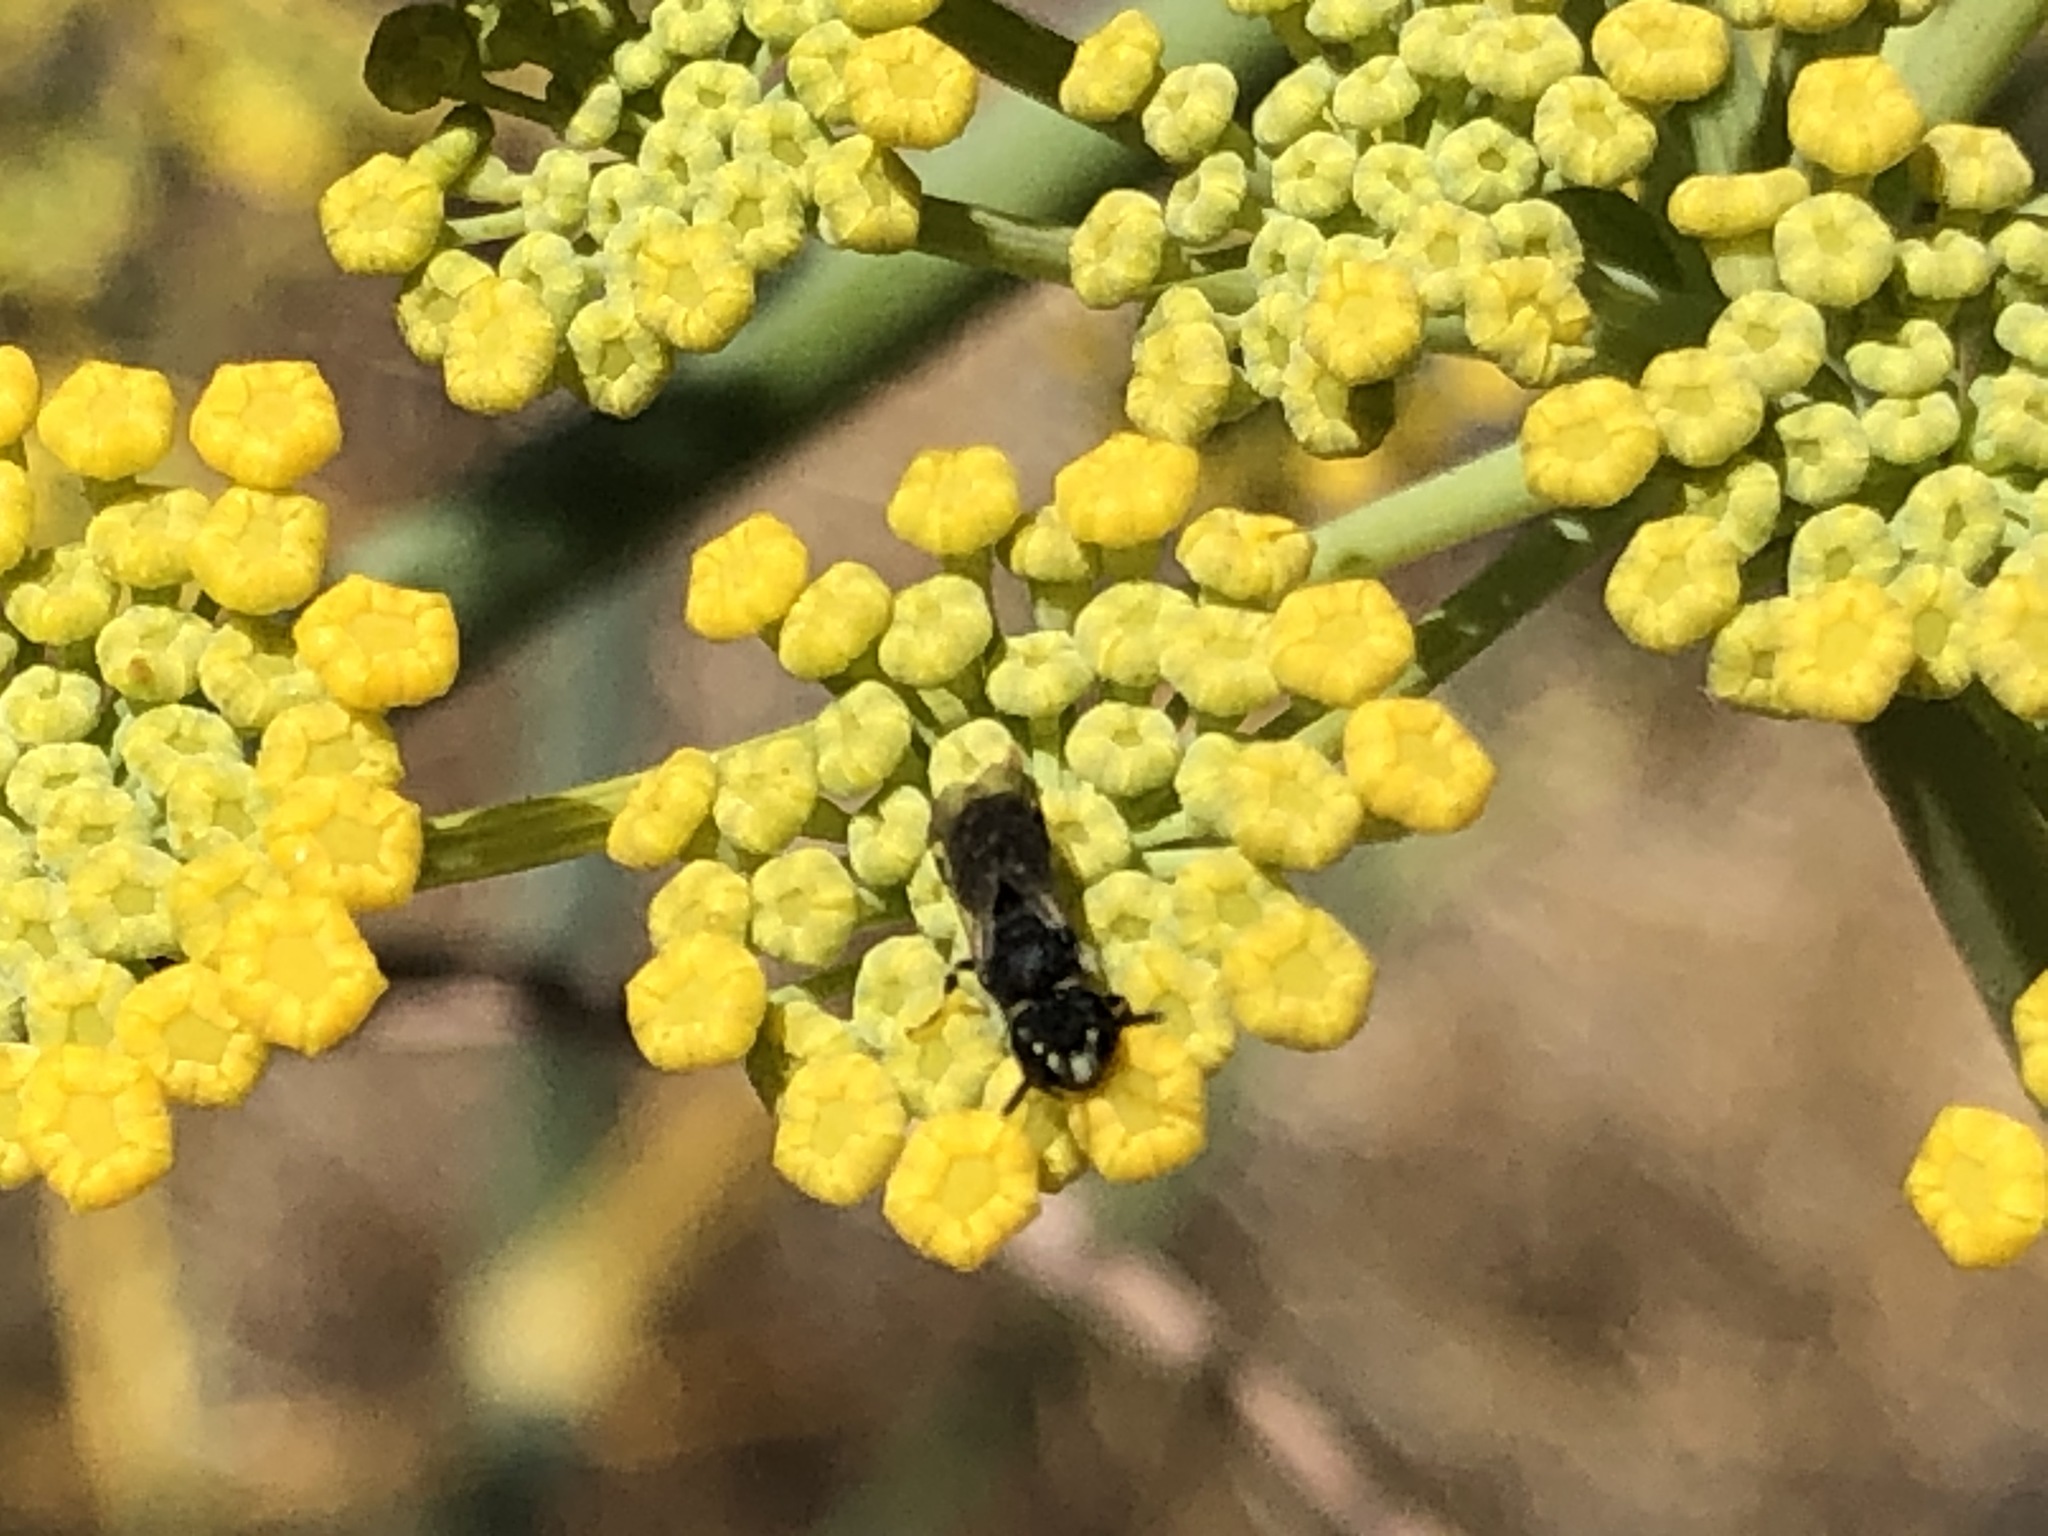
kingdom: Animalia
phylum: Arthropoda
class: Insecta
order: Hymenoptera
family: Colletidae
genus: Hylaeus
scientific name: Hylaeus
